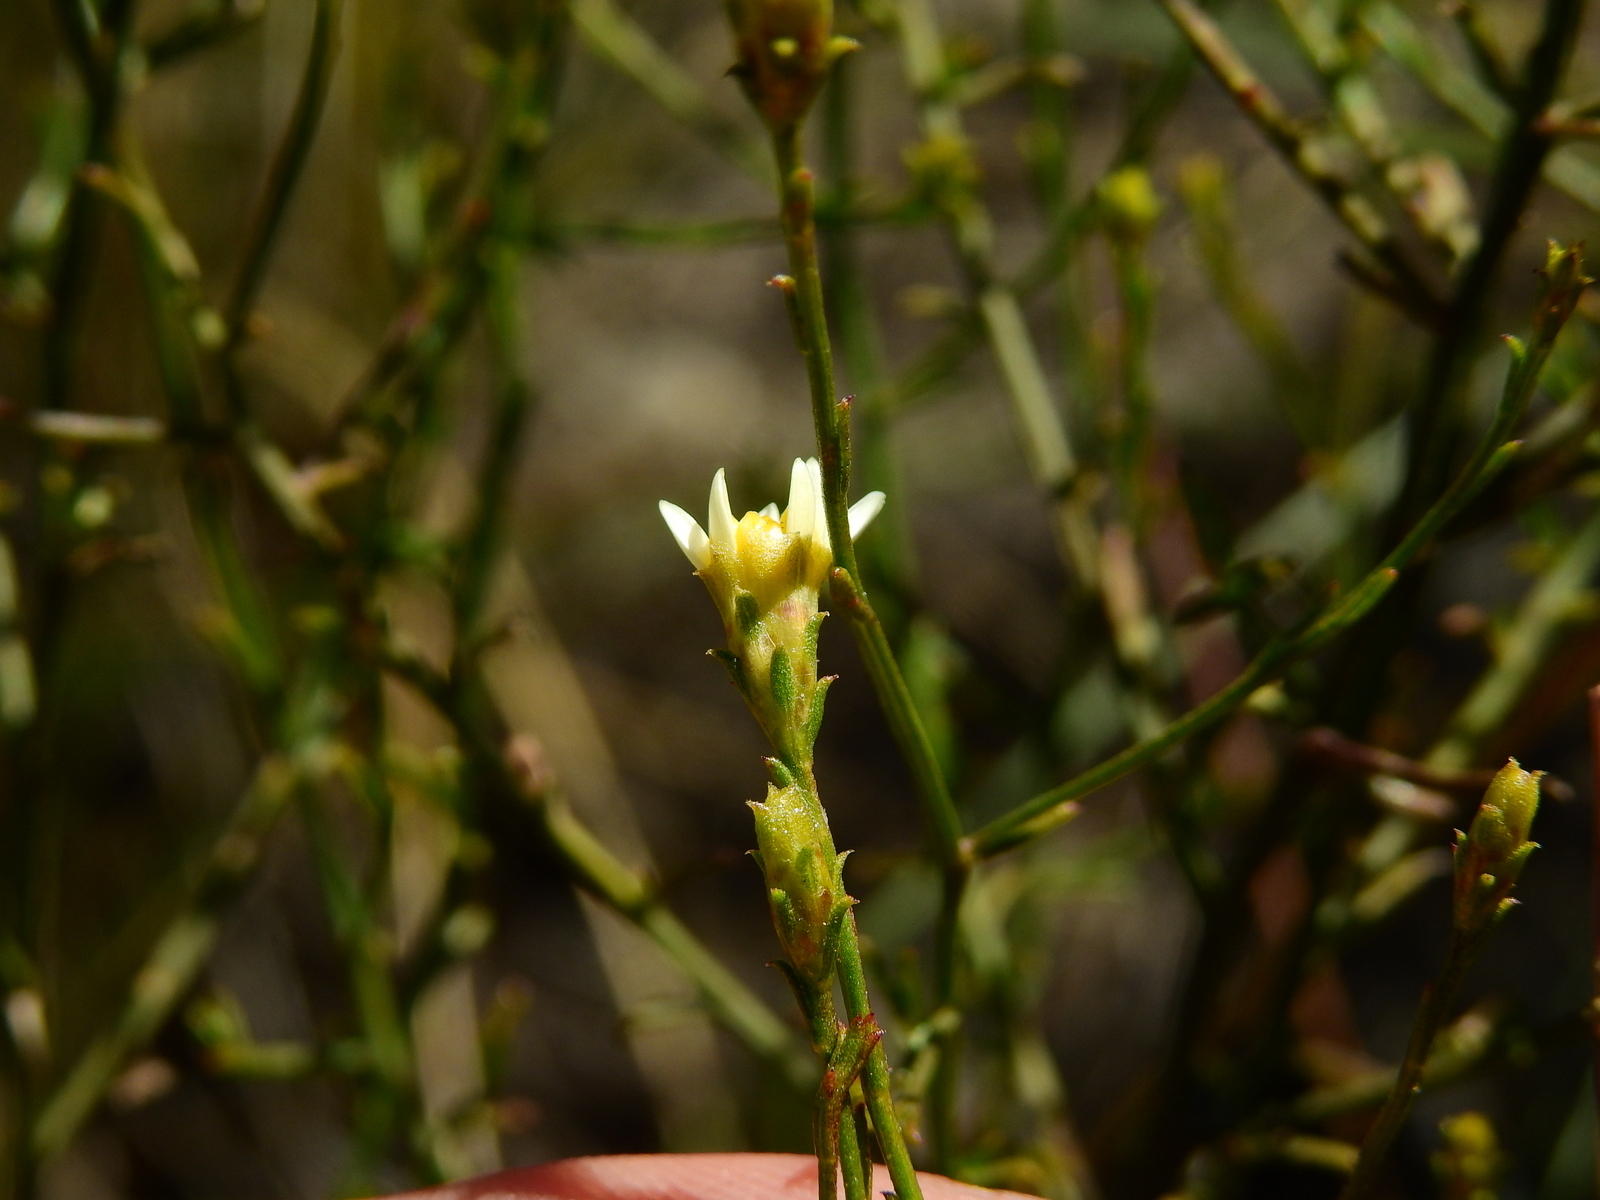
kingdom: Plantae
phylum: Tracheophyta
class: Magnoliopsida
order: Asterales
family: Asteraceae
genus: Gutierrezia
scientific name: Gutierrezia gilliesii
